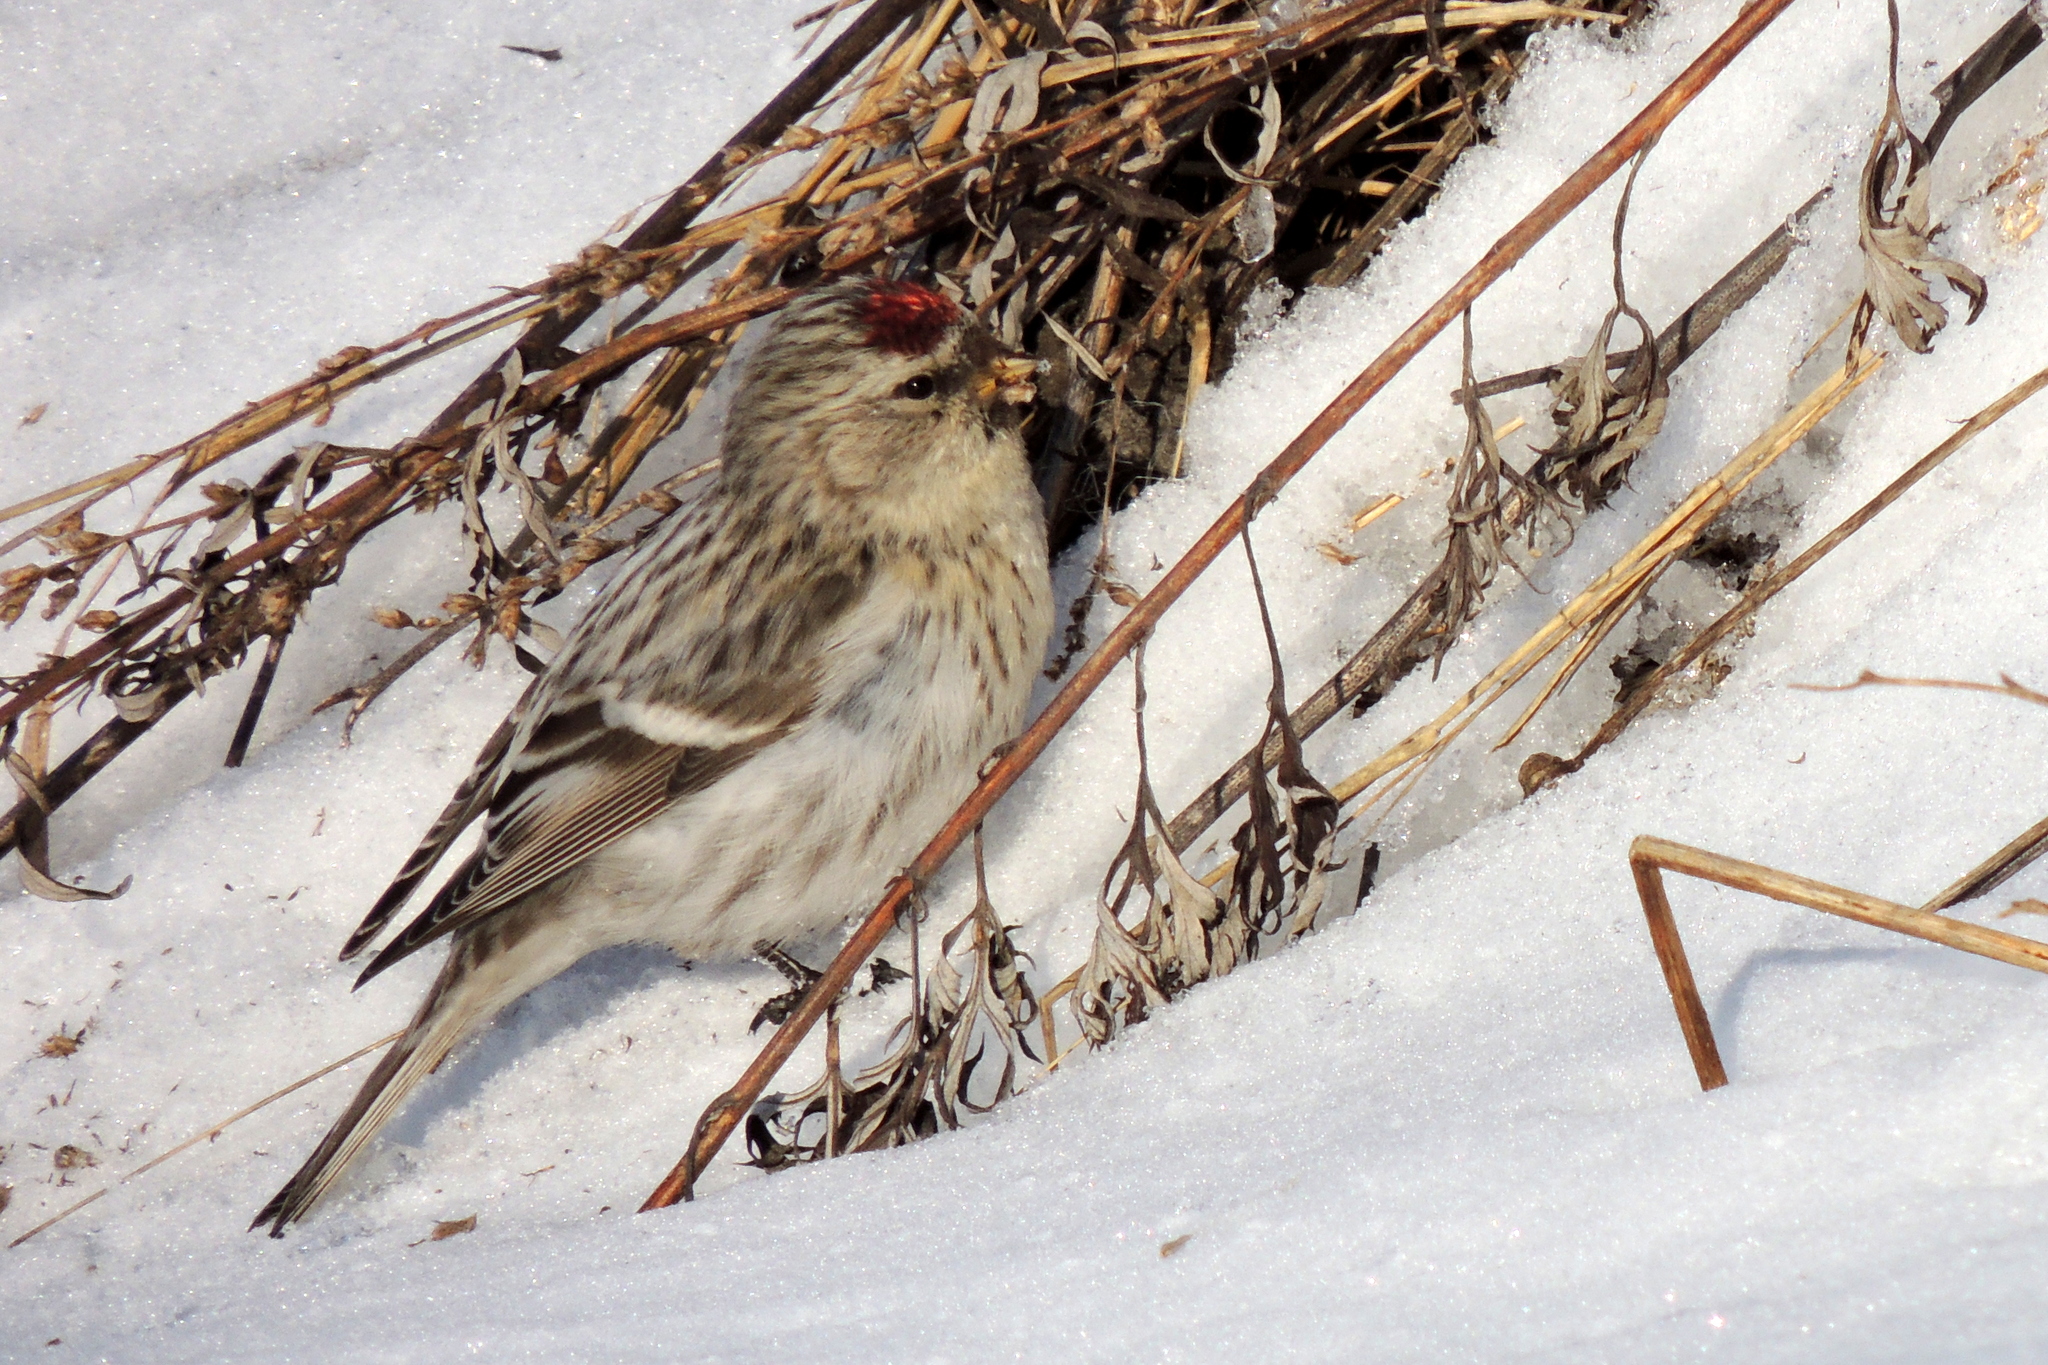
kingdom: Animalia
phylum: Chordata
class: Aves
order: Passeriformes
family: Fringillidae
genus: Acanthis
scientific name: Acanthis flammea
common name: Common redpoll
